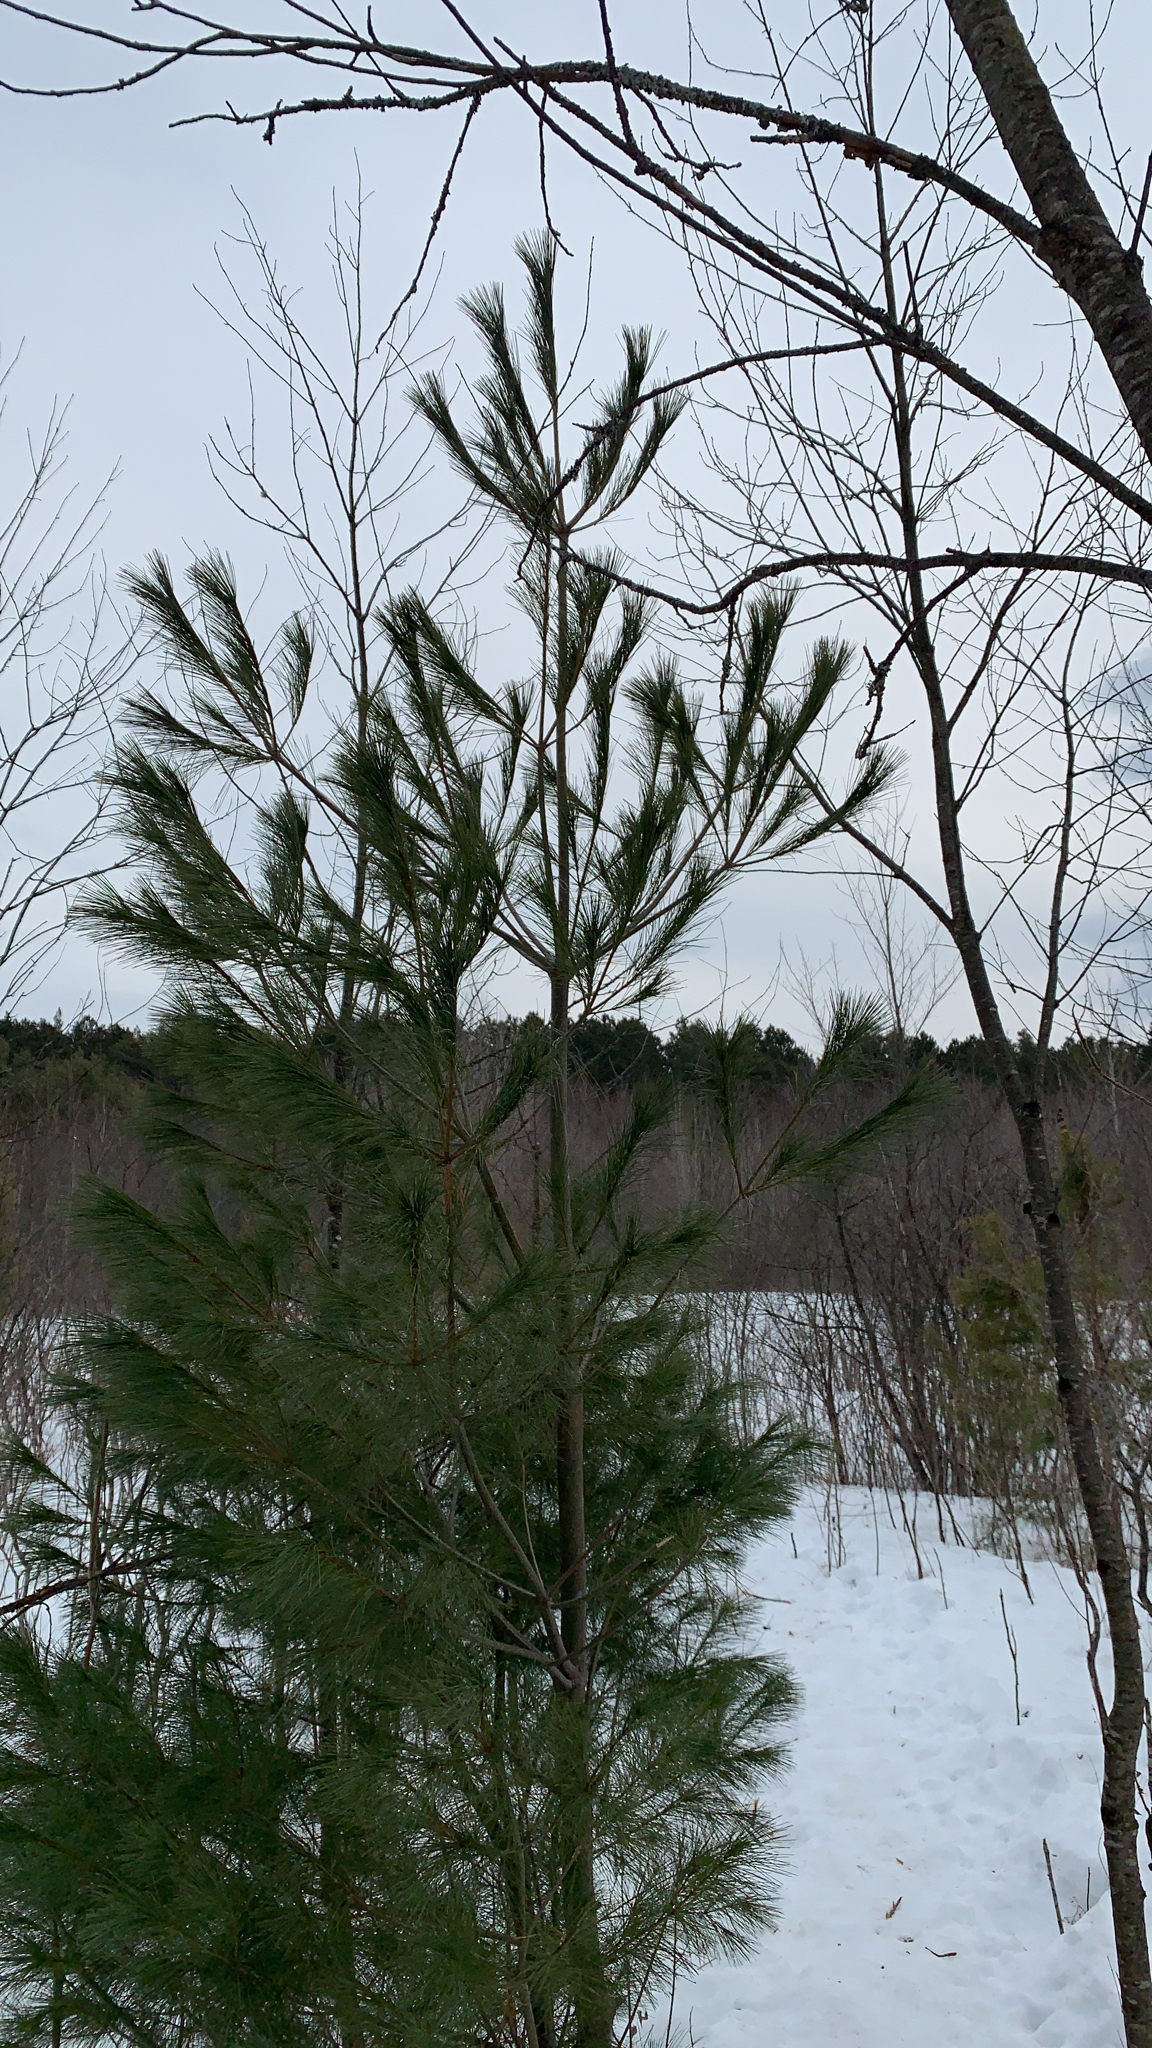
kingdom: Plantae
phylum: Tracheophyta
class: Pinopsida
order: Pinales
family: Pinaceae
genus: Pinus
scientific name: Pinus strobus
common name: Weymouth pine
